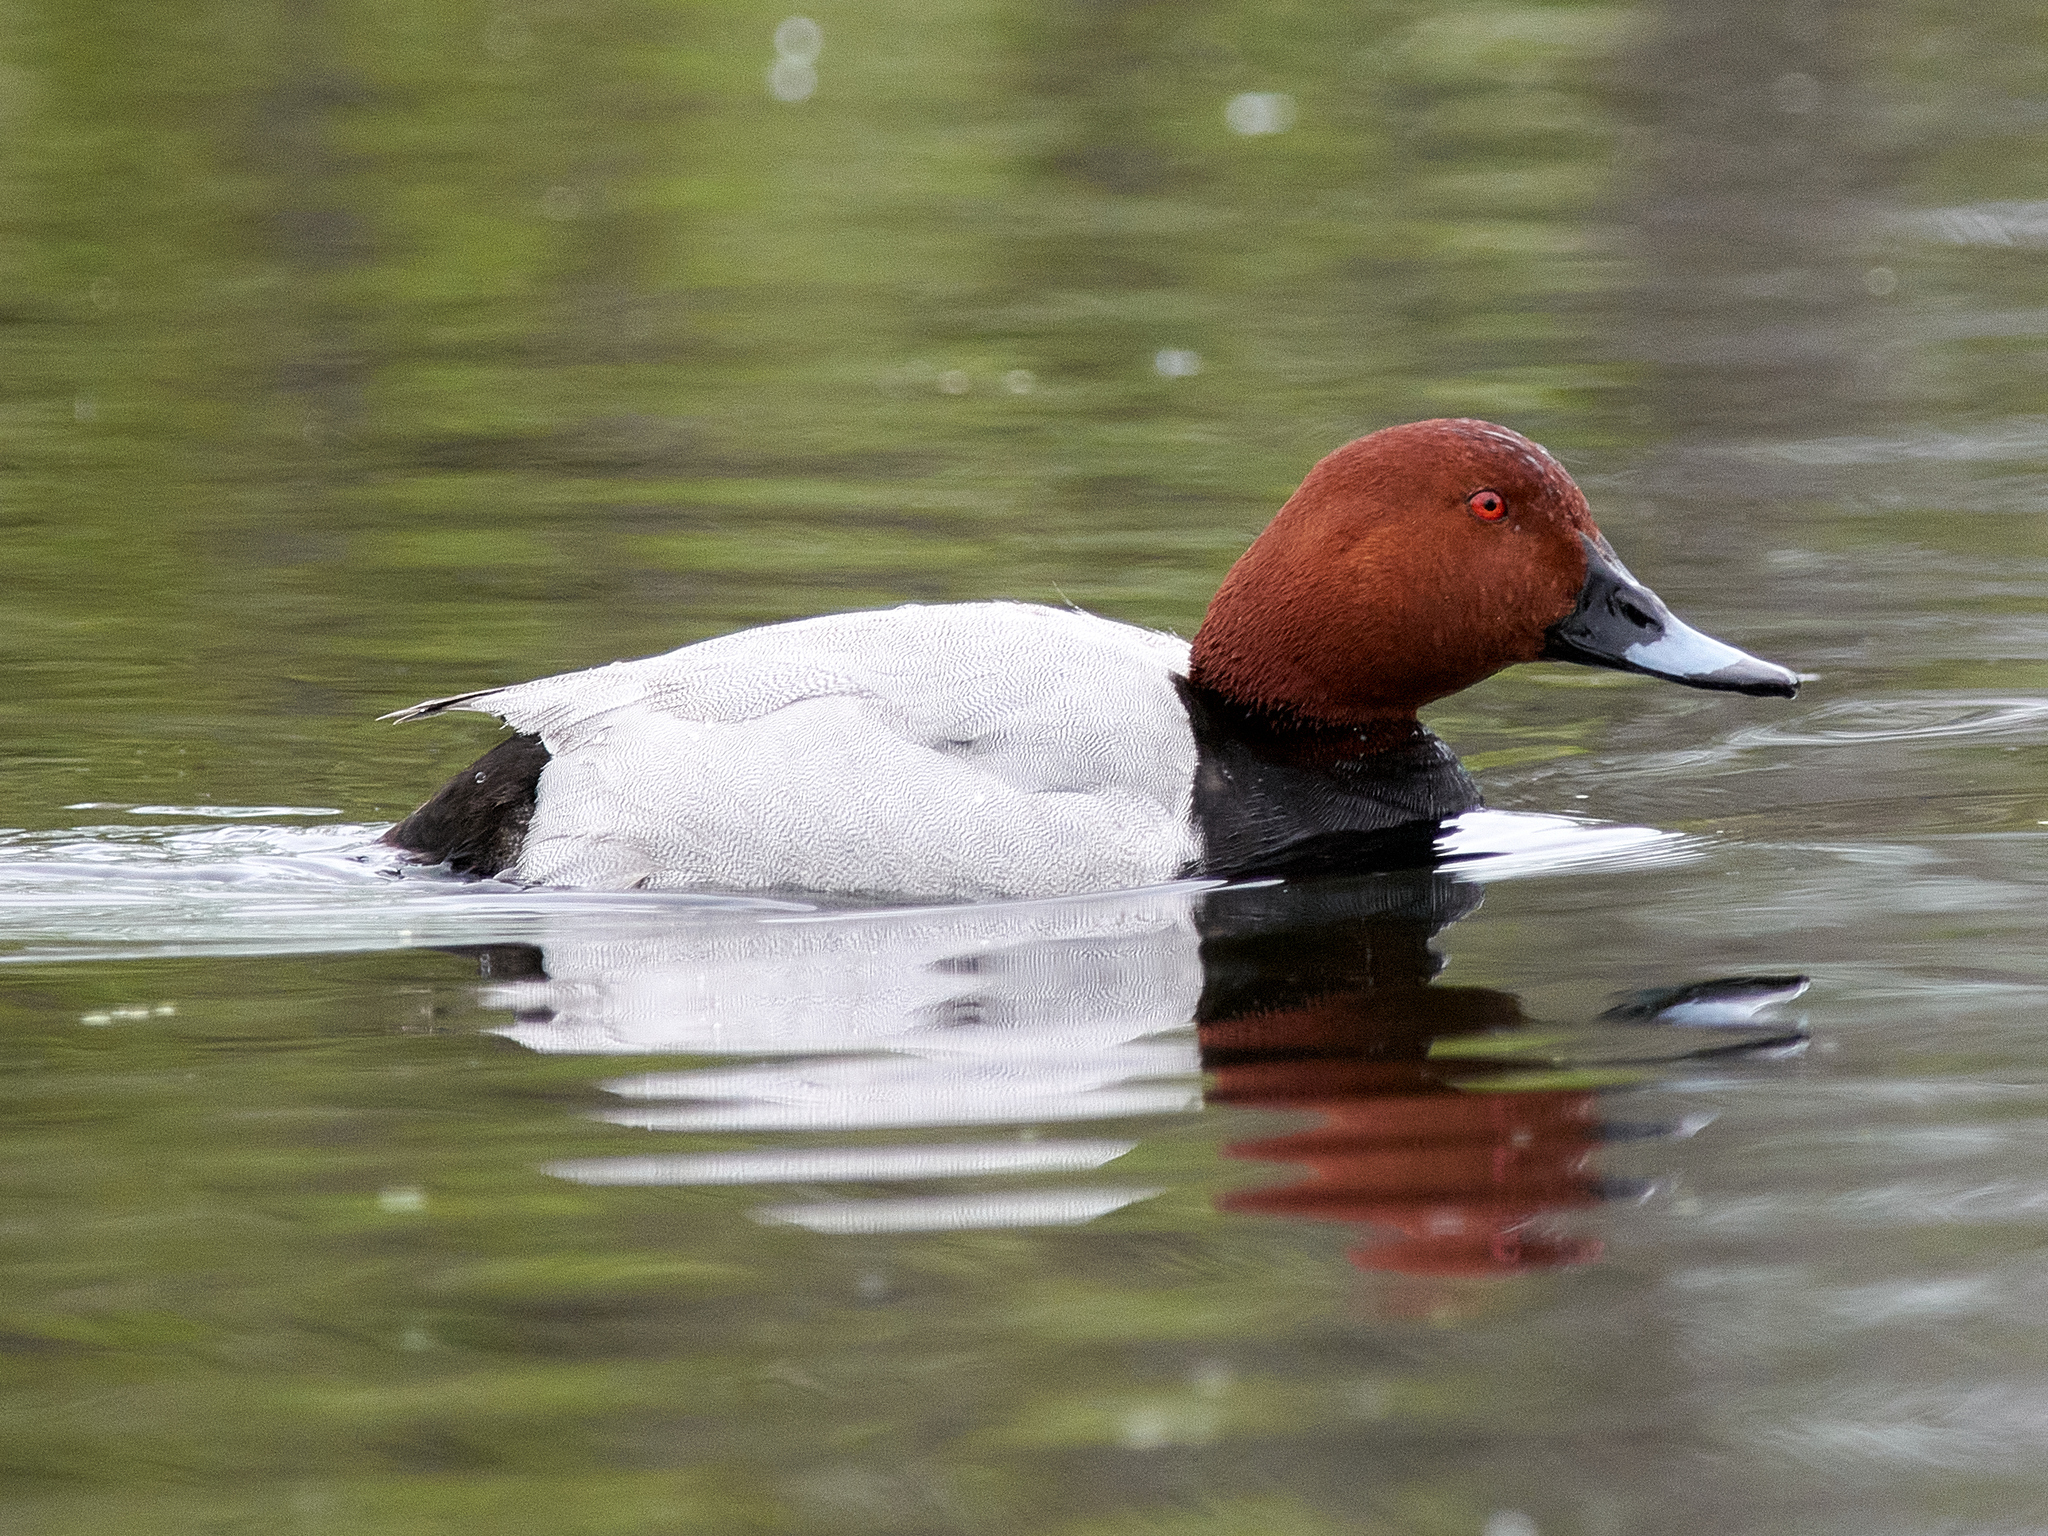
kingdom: Animalia
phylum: Chordata
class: Aves
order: Anseriformes
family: Anatidae
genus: Aythya
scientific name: Aythya ferina
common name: Common pochard
